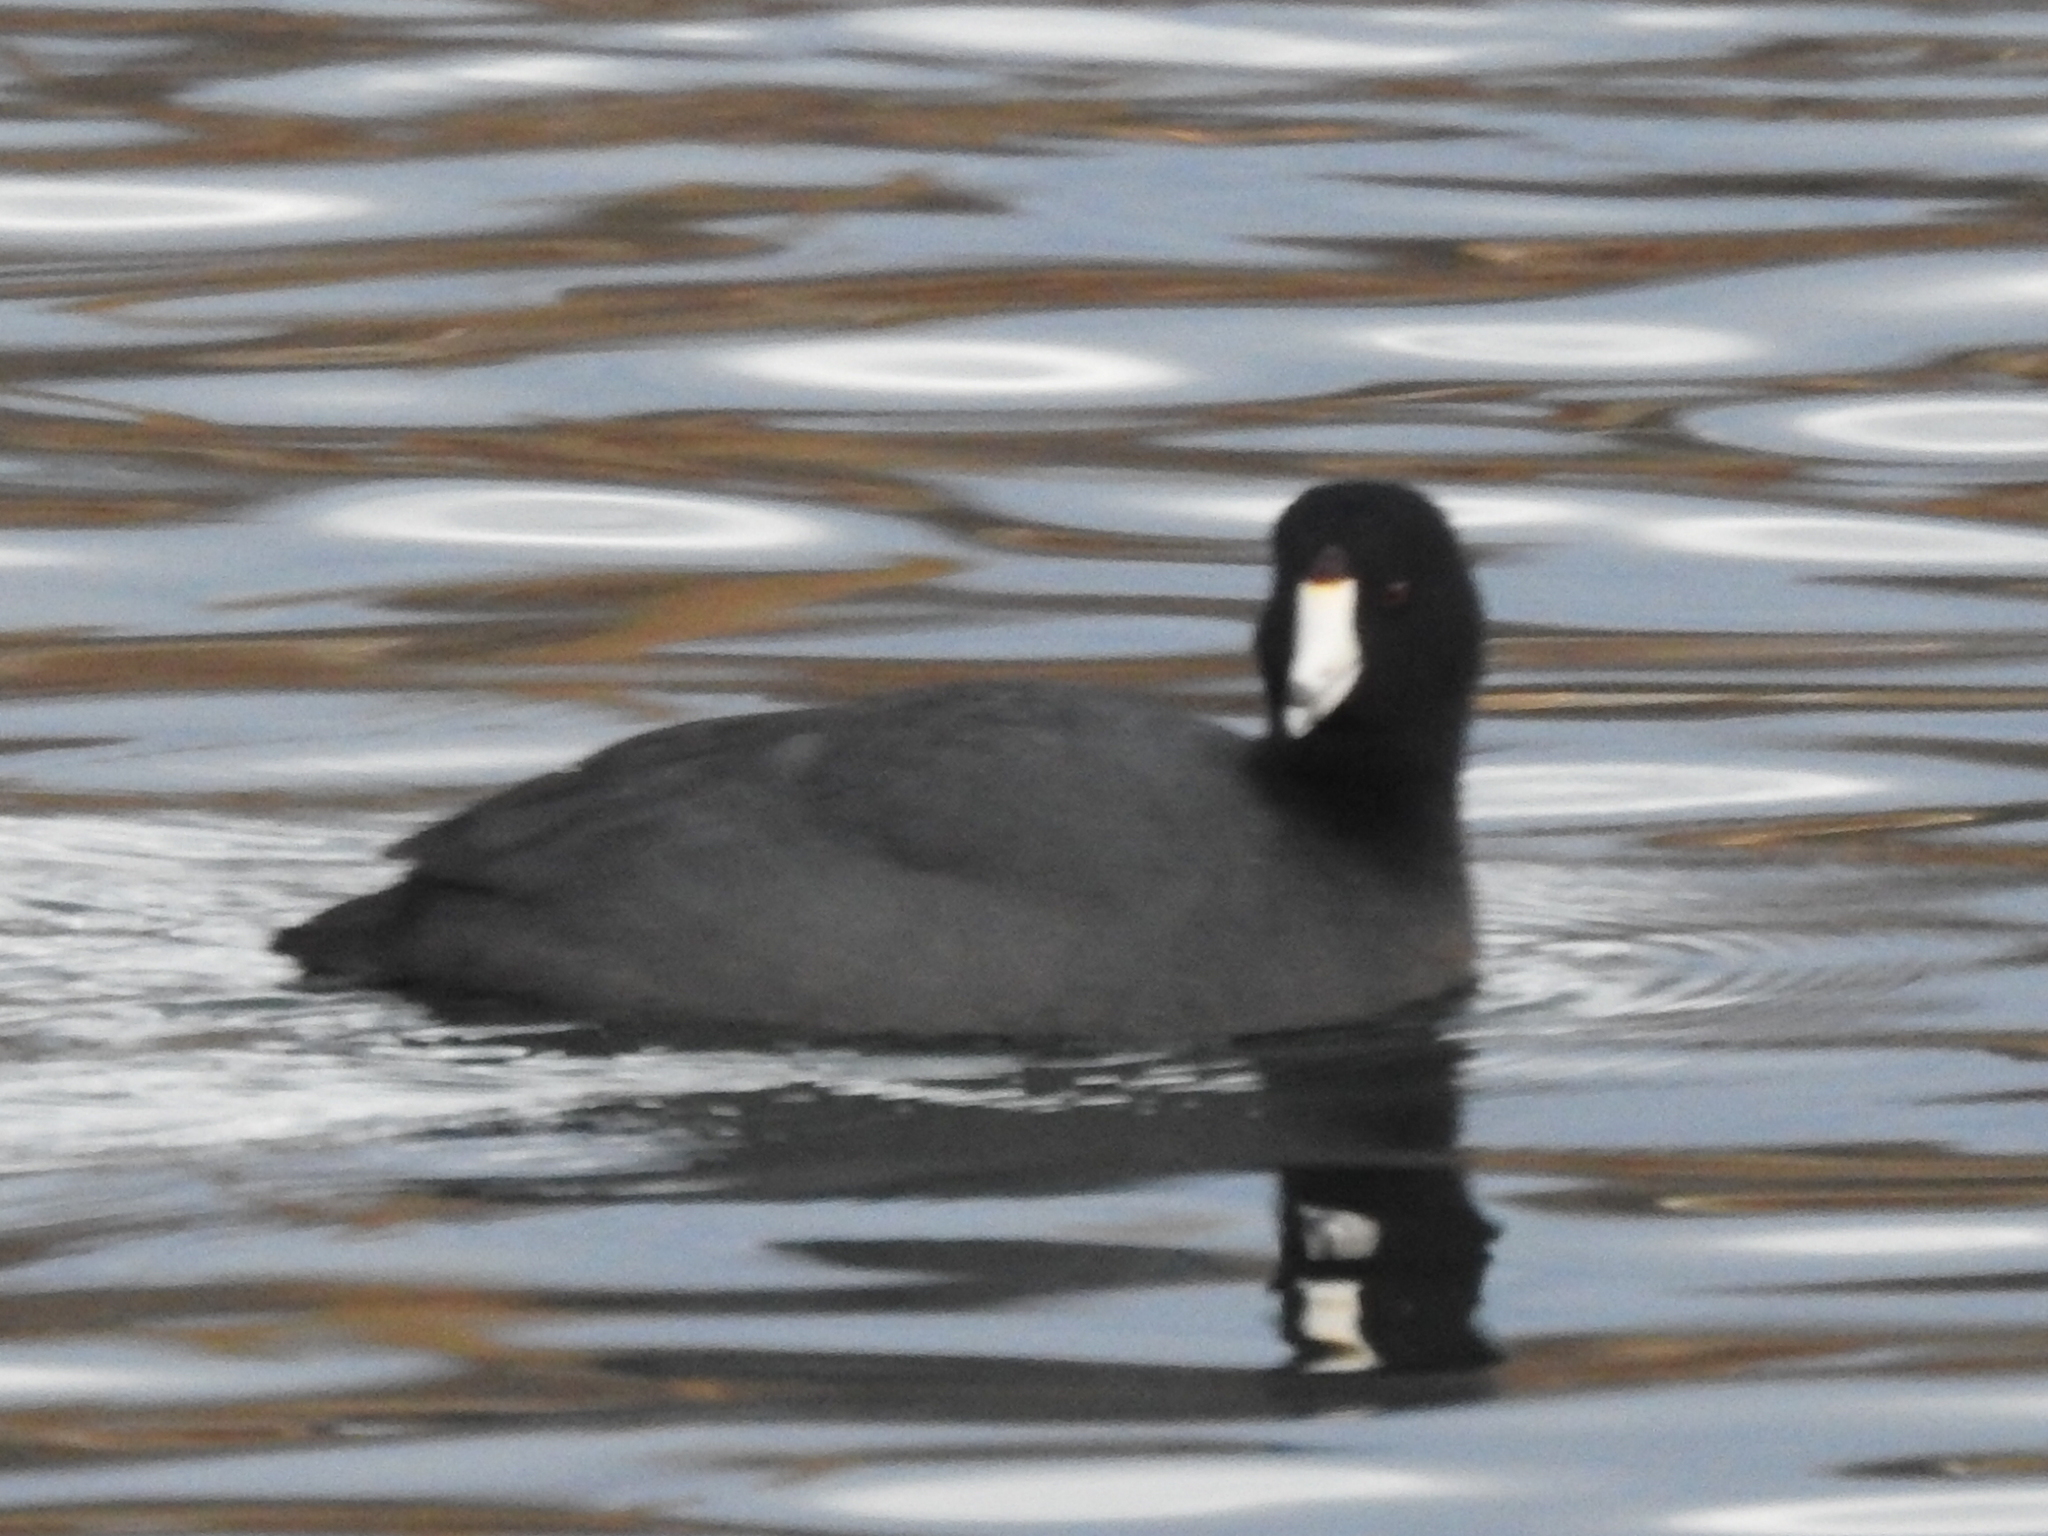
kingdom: Animalia
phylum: Chordata
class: Aves
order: Gruiformes
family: Rallidae
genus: Fulica
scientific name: Fulica americana
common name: American coot
